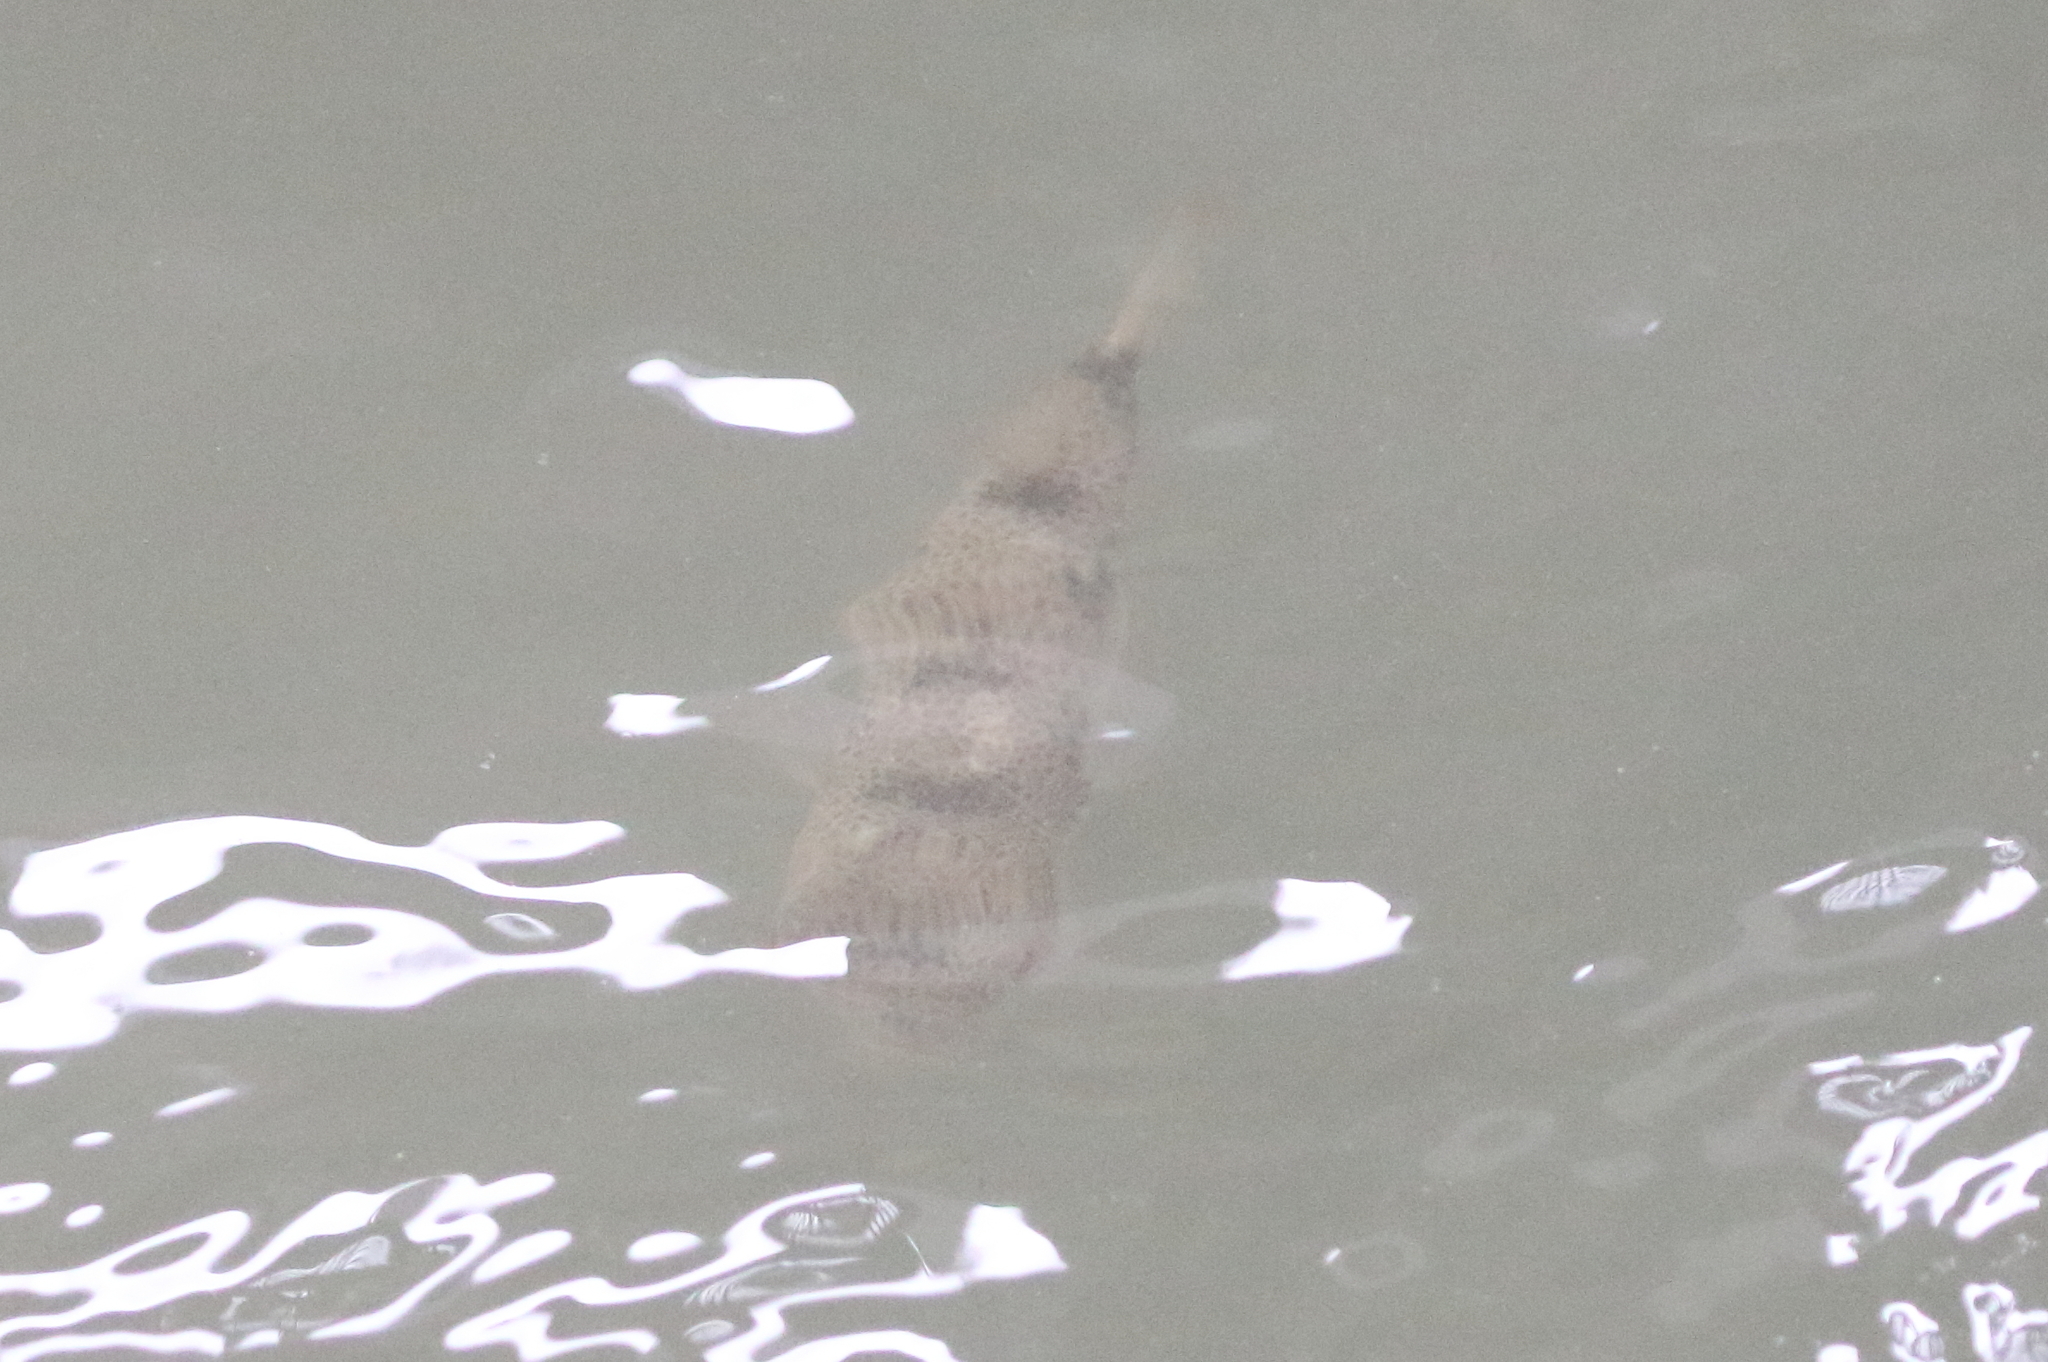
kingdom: Animalia
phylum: Chordata
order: Tetraodontiformes
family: Tetraodontidae
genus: Tetractenos
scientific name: Tetractenos hamiltoni
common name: Common toadfish
